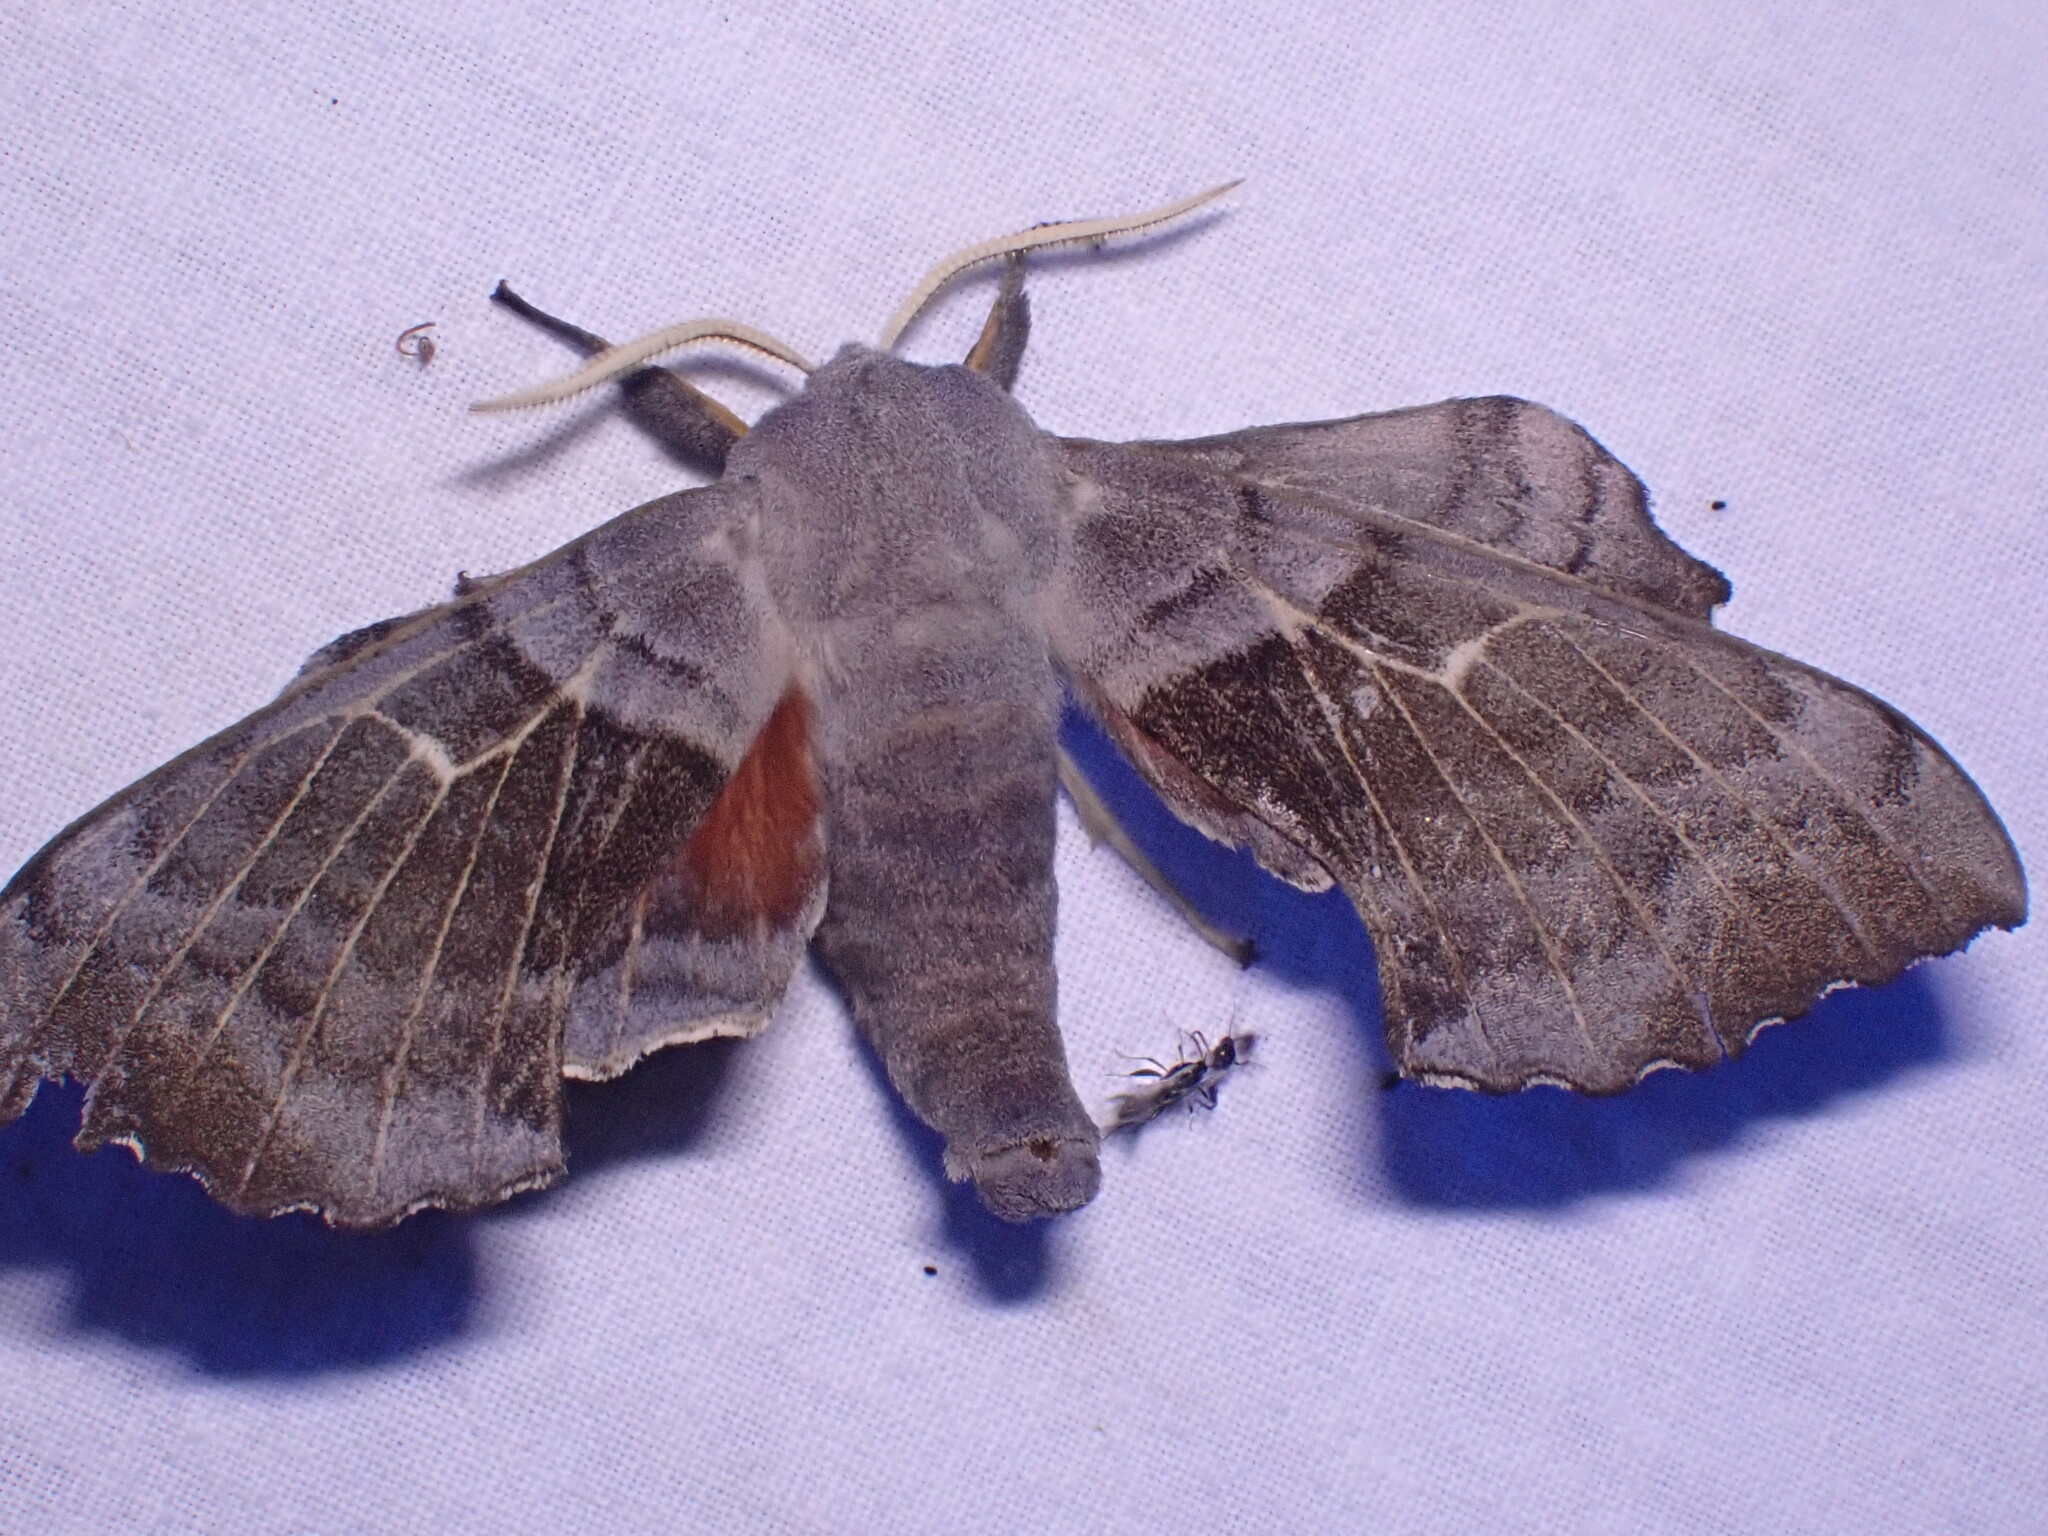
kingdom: Animalia
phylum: Arthropoda
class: Insecta
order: Lepidoptera
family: Sphingidae
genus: Laothoe
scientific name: Laothoe populi
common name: Poplar hawk-moth
